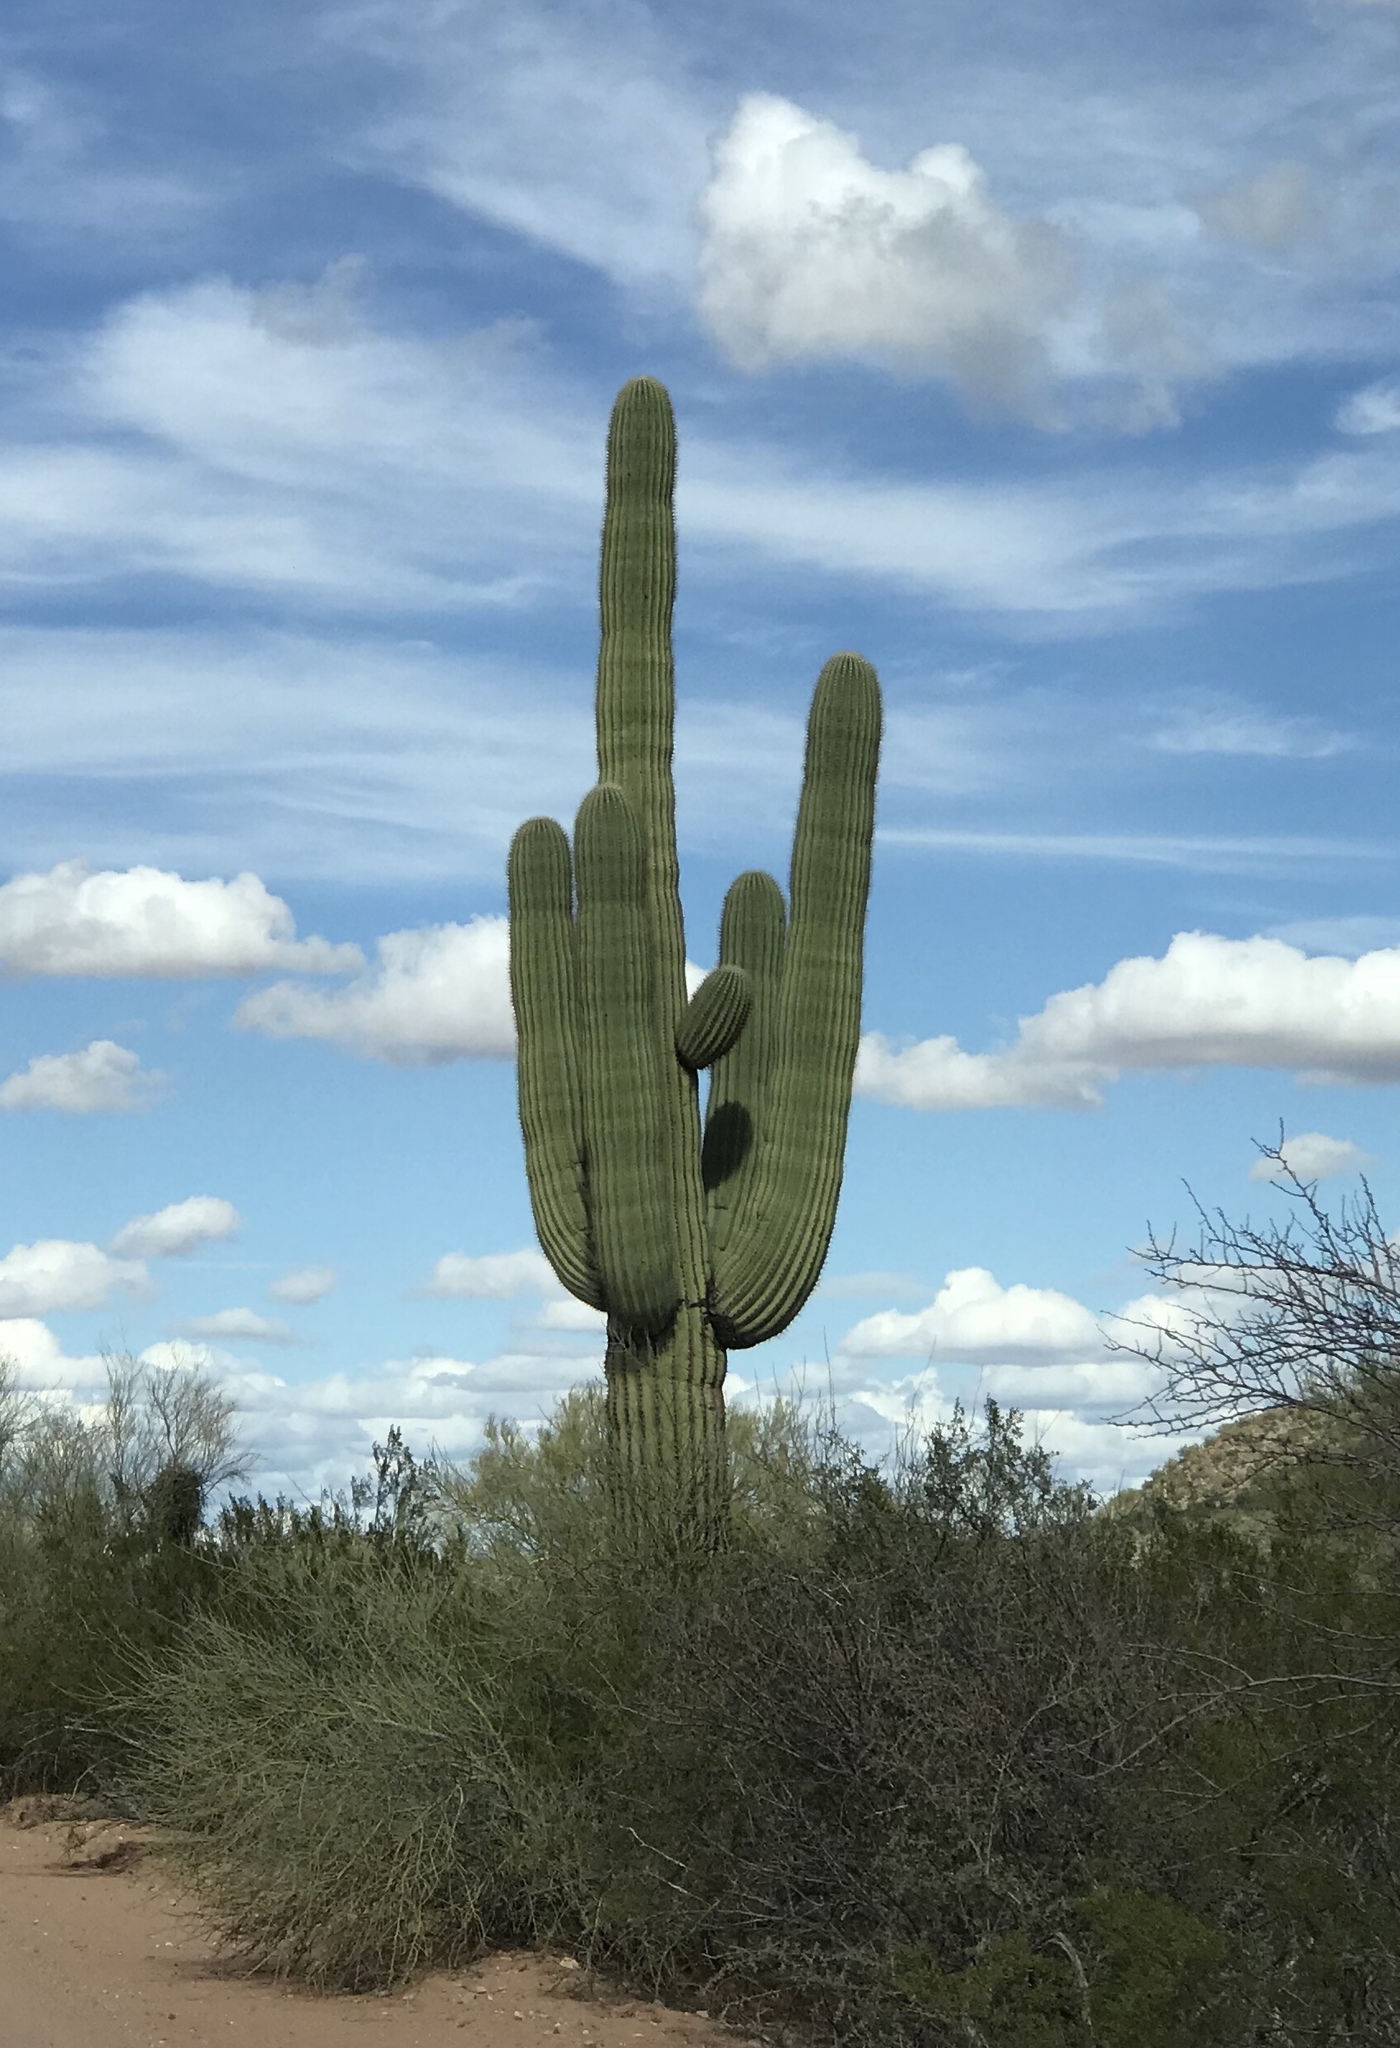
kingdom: Plantae
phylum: Tracheophyta
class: Magnoliopsida
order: Caryophyllales
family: Cactaceae
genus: Carnegiea
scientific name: Carnegiea gigantea
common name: Saguaro
